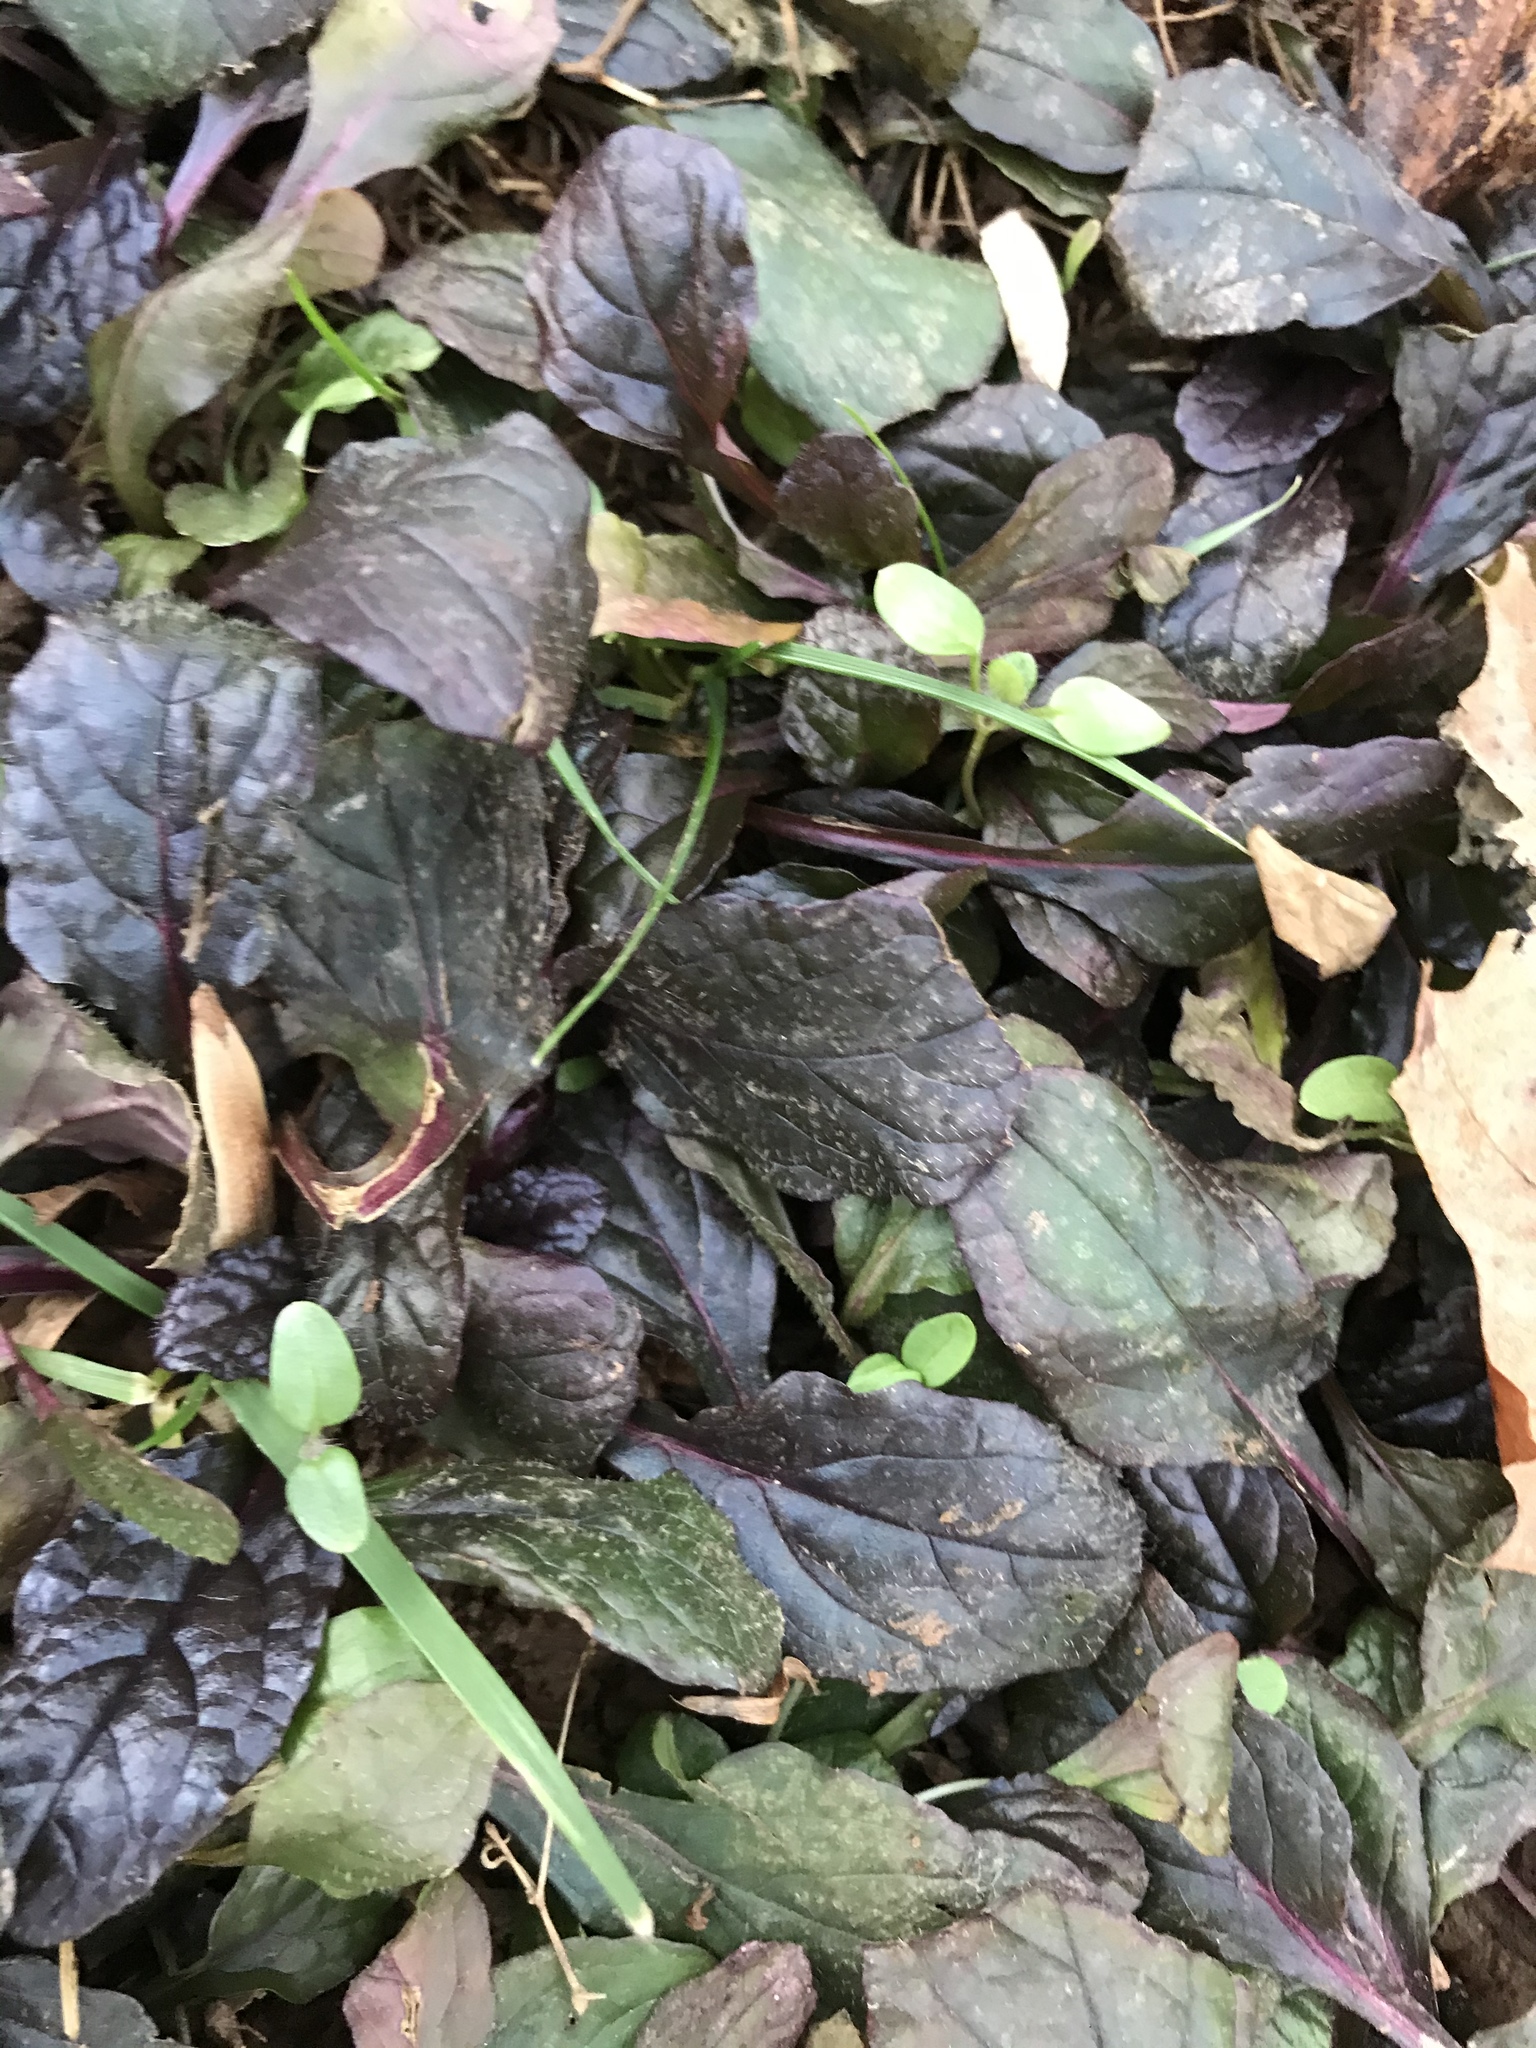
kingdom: Plantae
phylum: Tracheophyta
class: Magnoliopsida
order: Lamiales
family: Lamiaceae
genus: Ajuga
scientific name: Ajuga reptans
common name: Bugle
